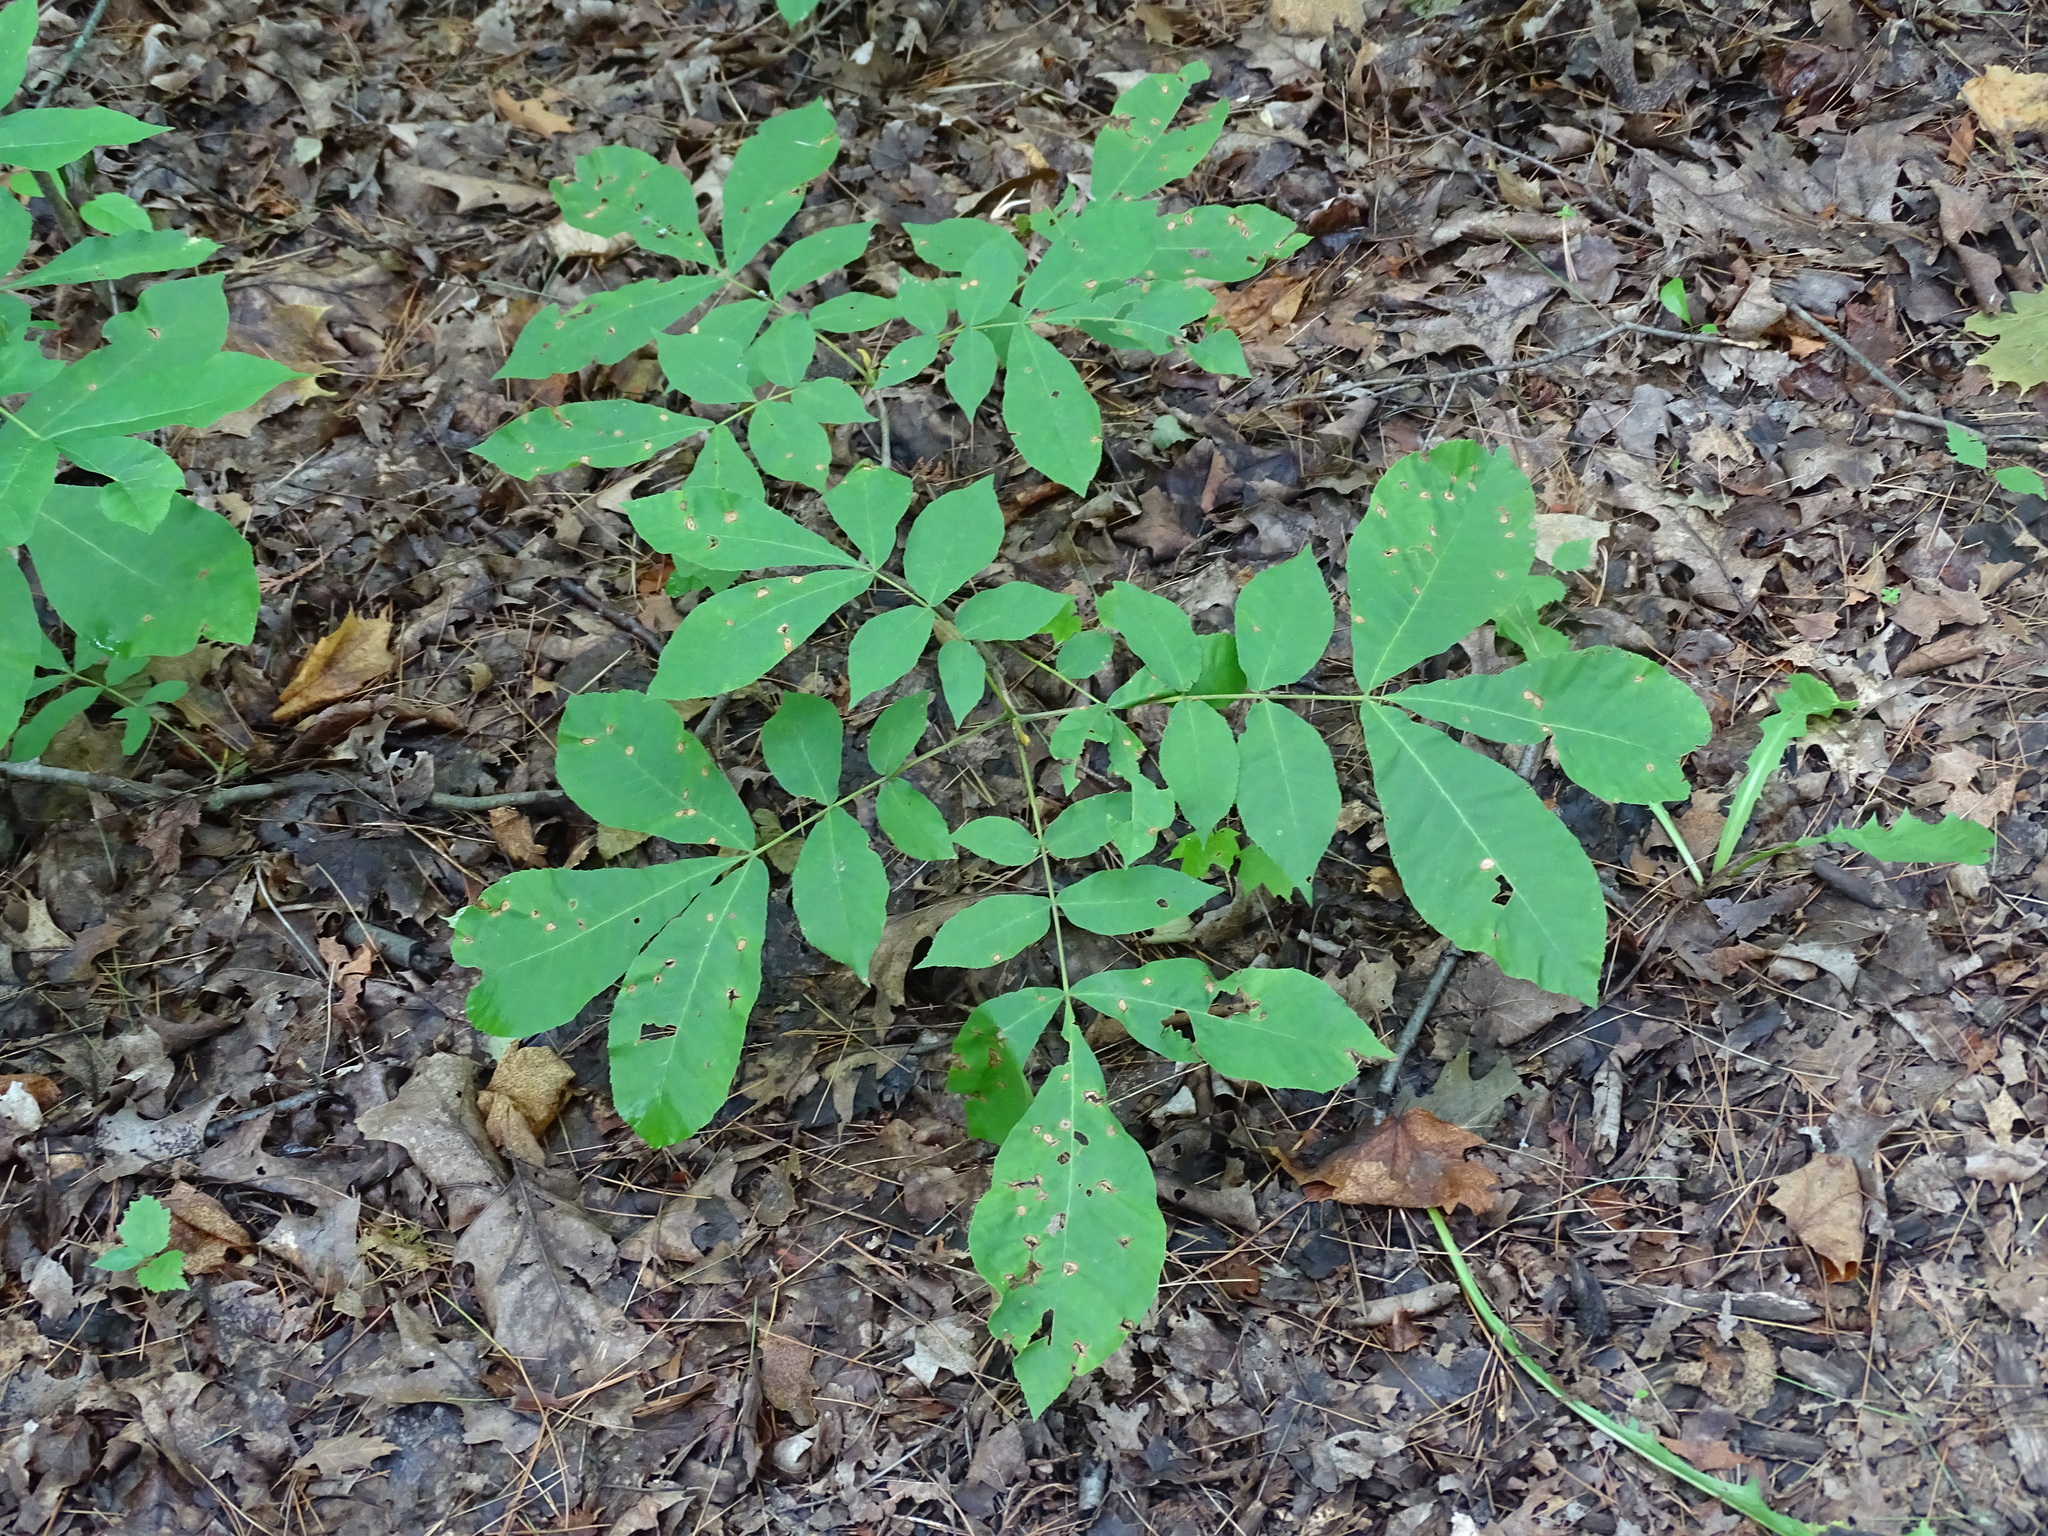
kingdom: Plantae
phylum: Tracheophyta
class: Magnoliopsida
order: Fagales
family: Juglandaceae
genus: Carya
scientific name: Carya cordiformis
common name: Bitternut hickory
